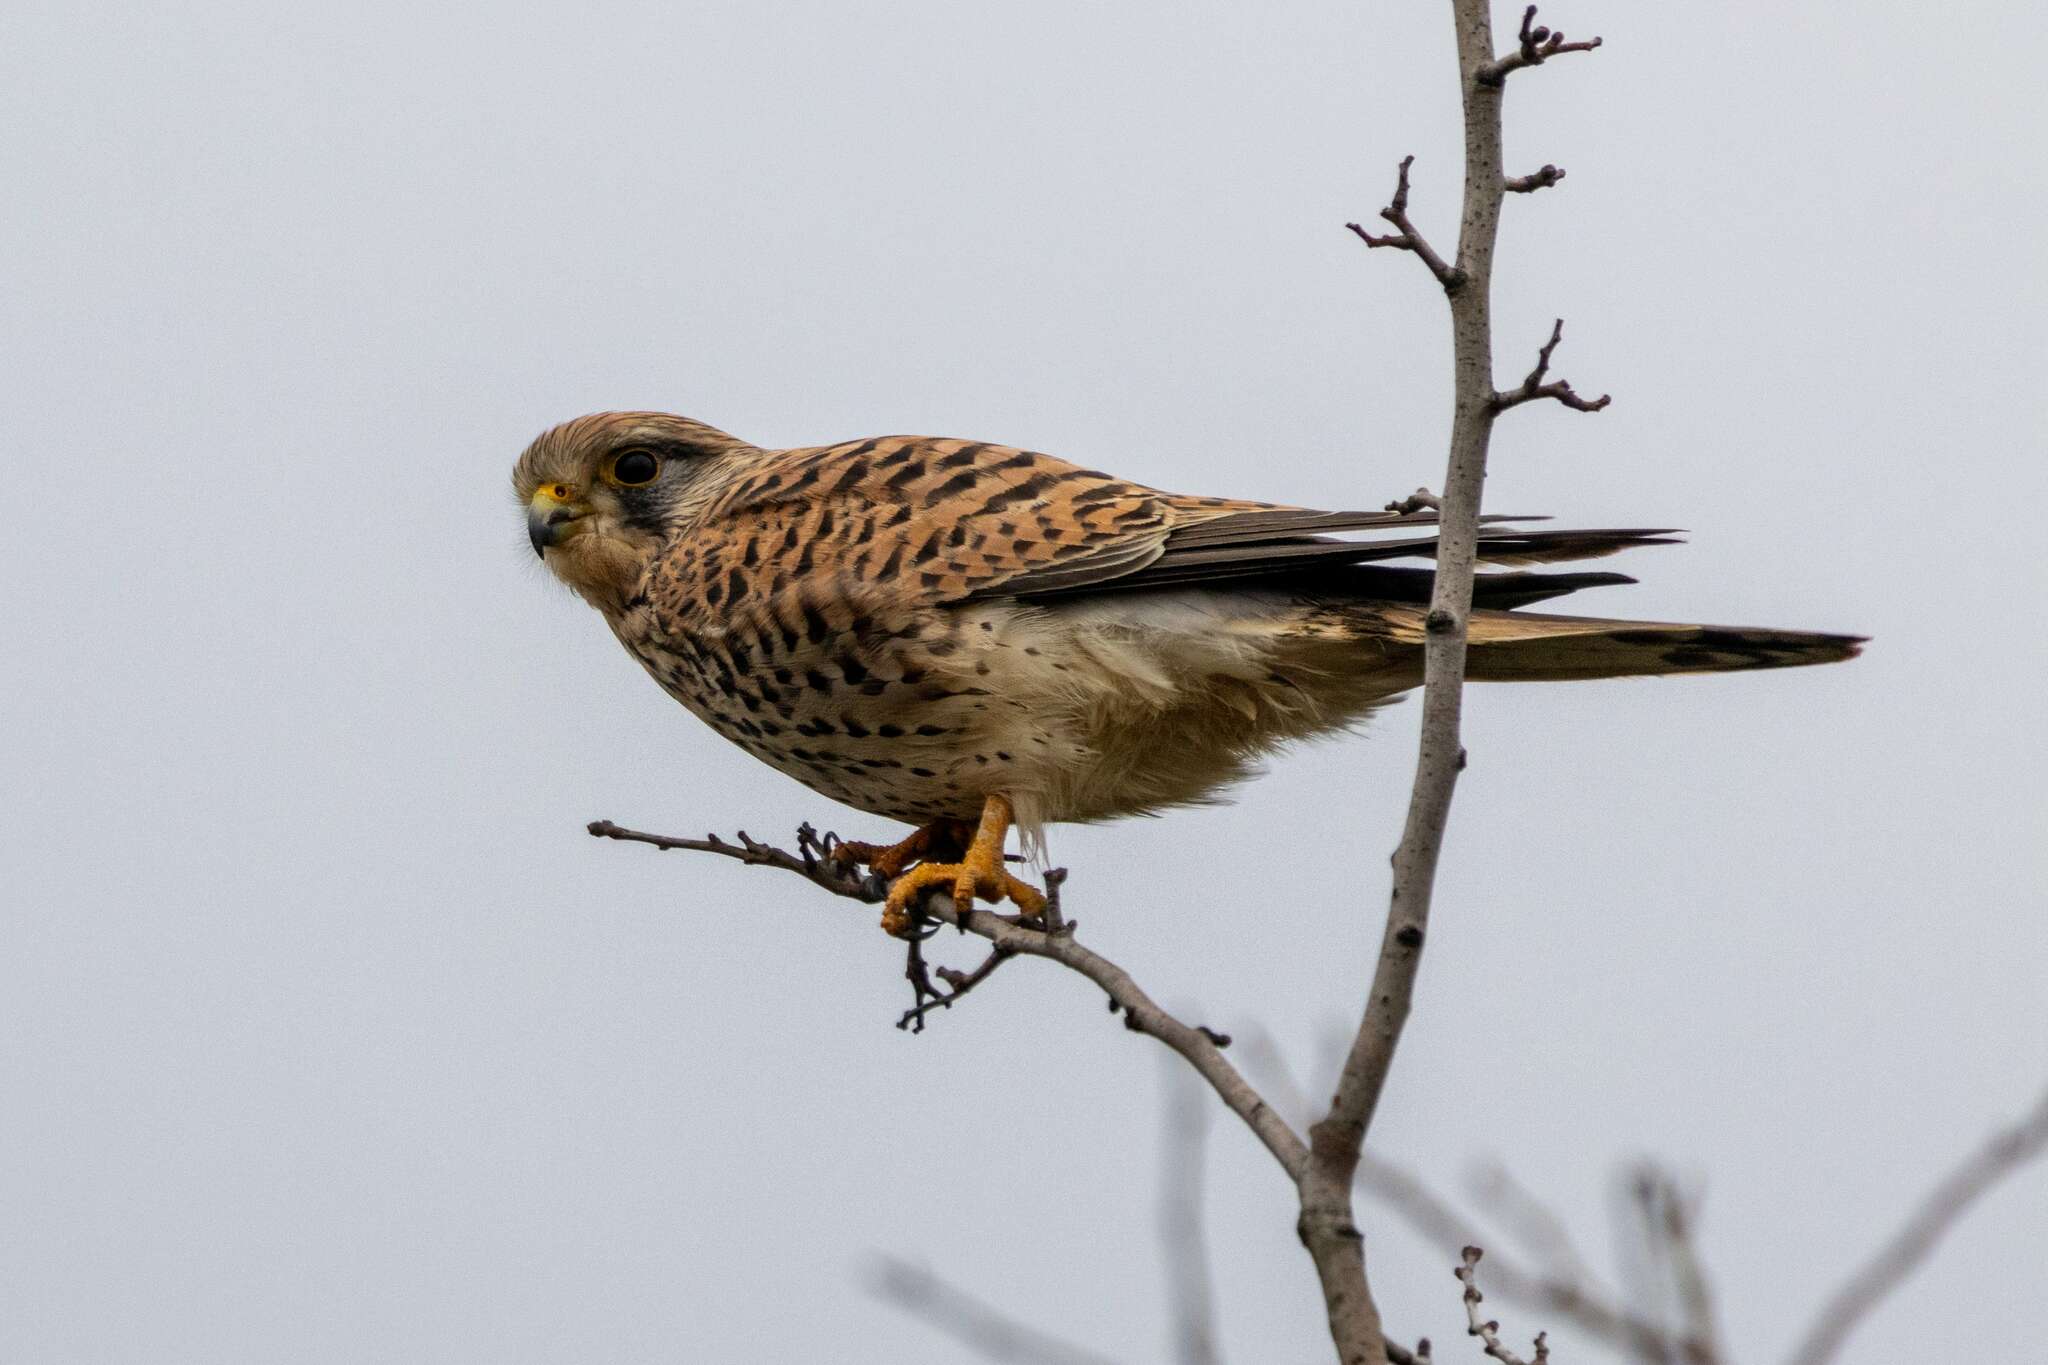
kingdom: Animalia
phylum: Chordata
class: Aves
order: Falconiformes
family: Falconidae
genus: Falco
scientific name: Falco tinnunculus
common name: Common kestrel
